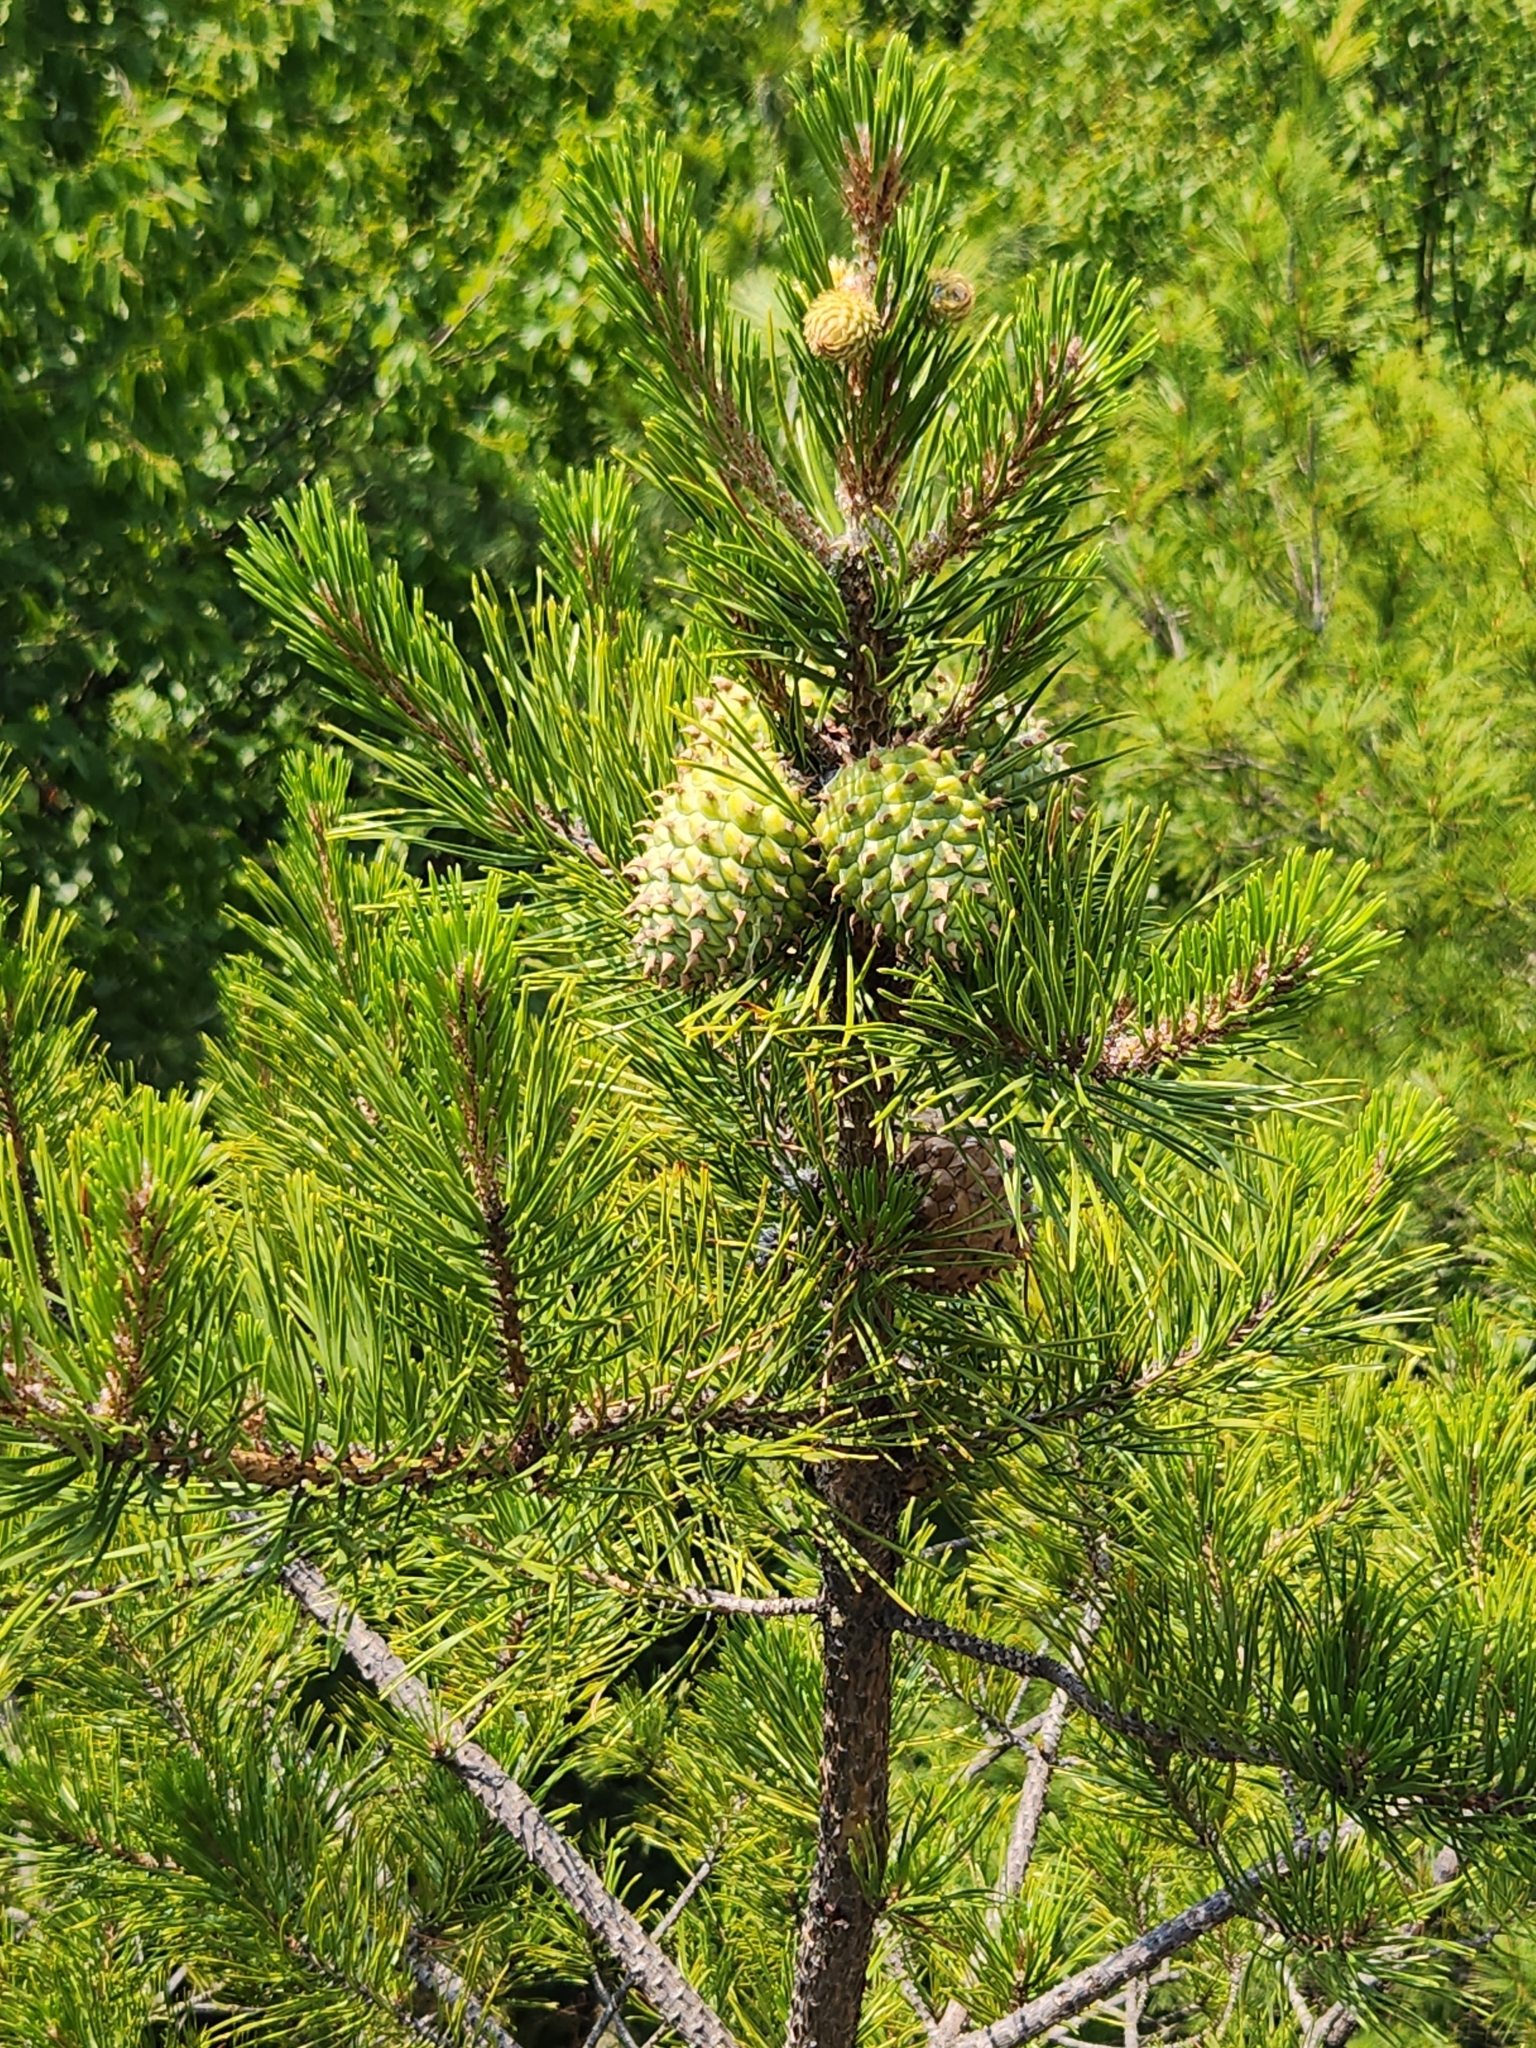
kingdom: Plantae
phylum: Tracheophyta
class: Pinopsida
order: Pinales
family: Pinaceae
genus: Pinus
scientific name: Pinus pungens
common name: Hickory pine
